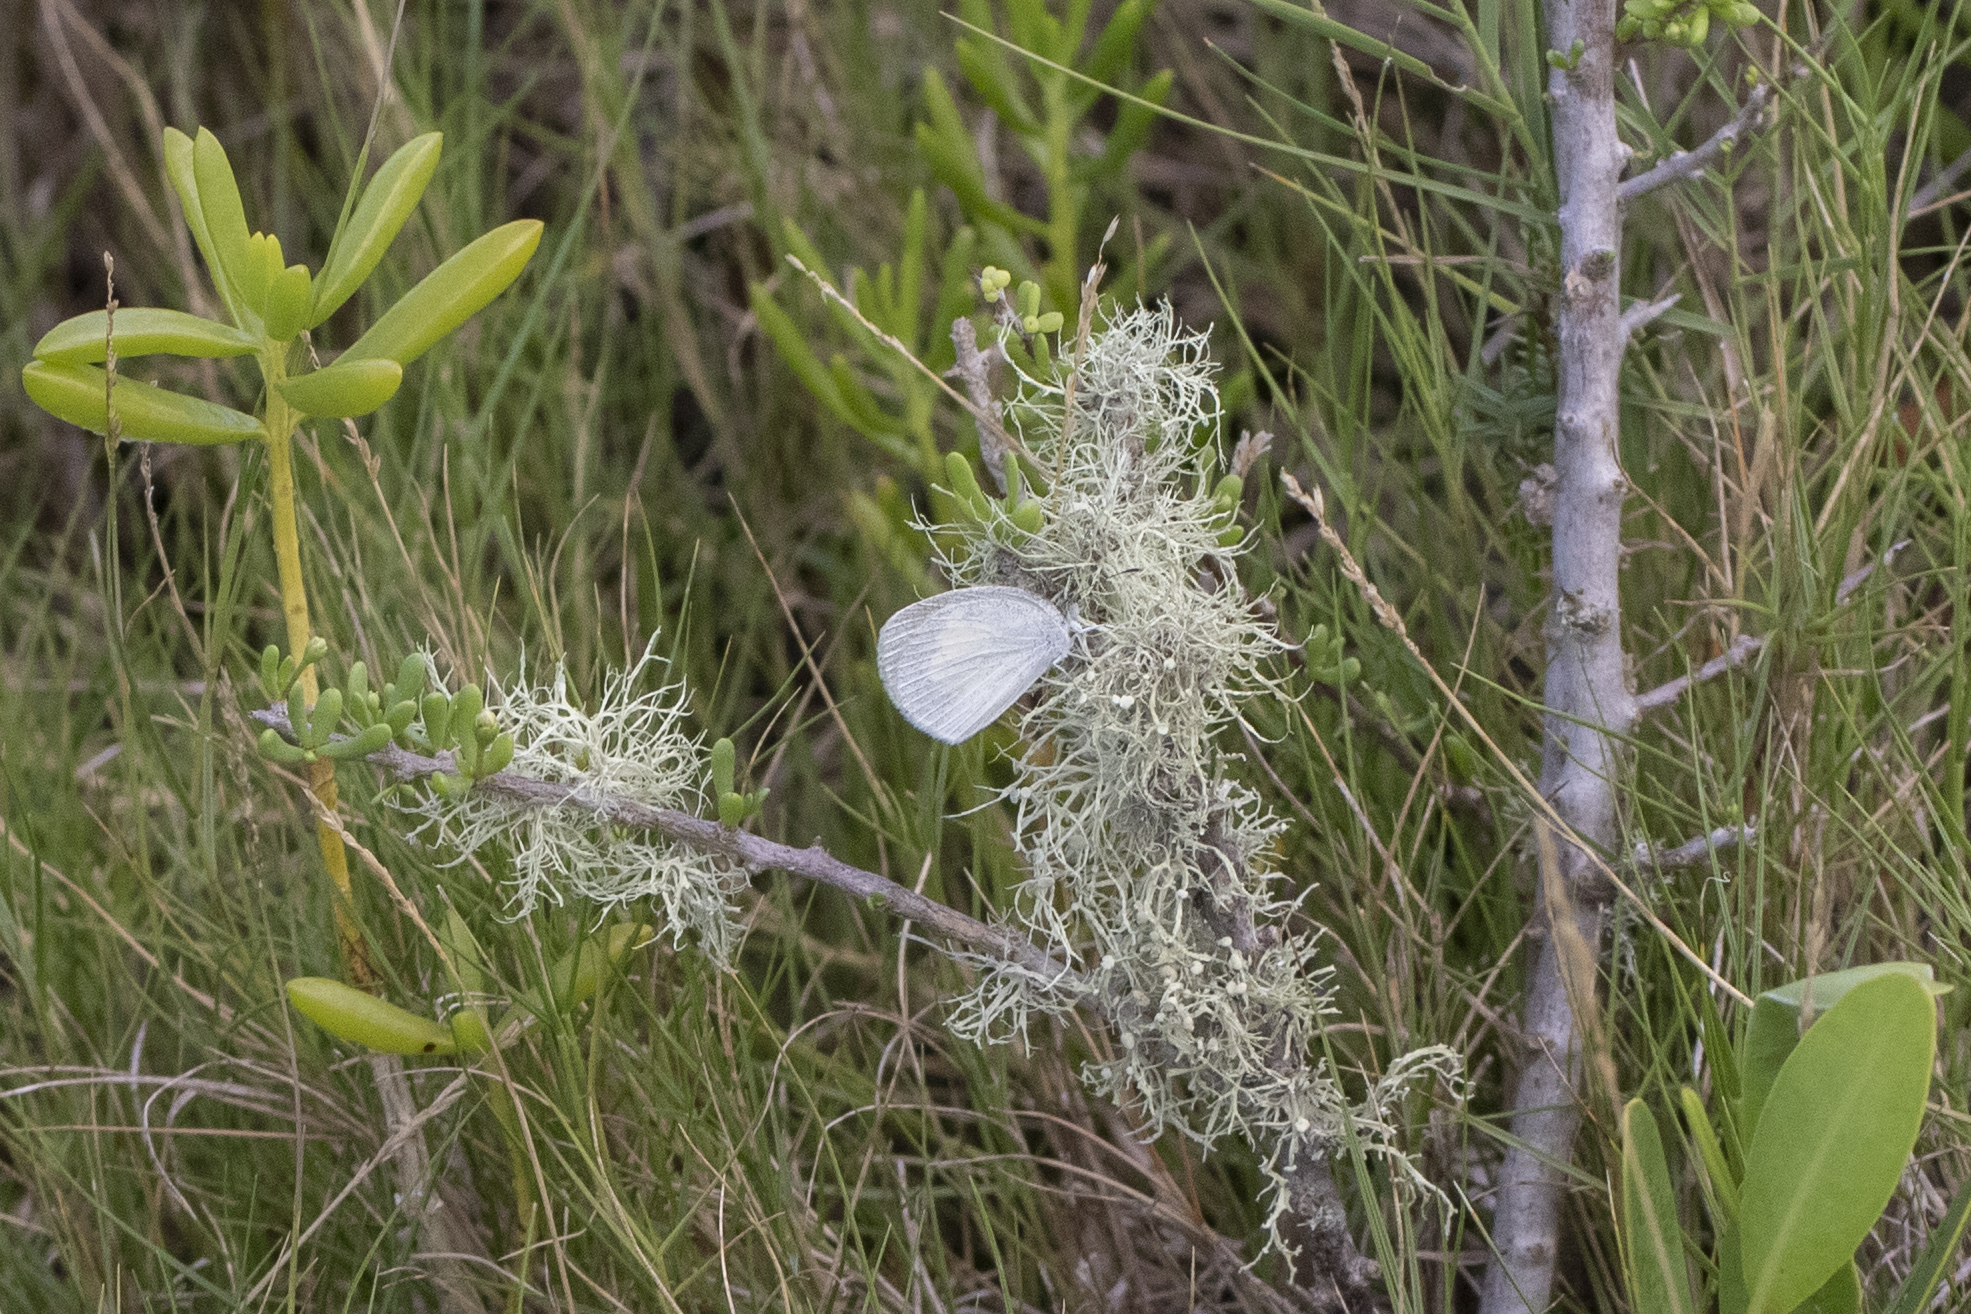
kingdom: Animalia
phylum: Arthropoda
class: Insecta
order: Lepidoptera
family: Pieridae
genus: Eurema
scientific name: Eurema daira
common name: Barred sulphur
